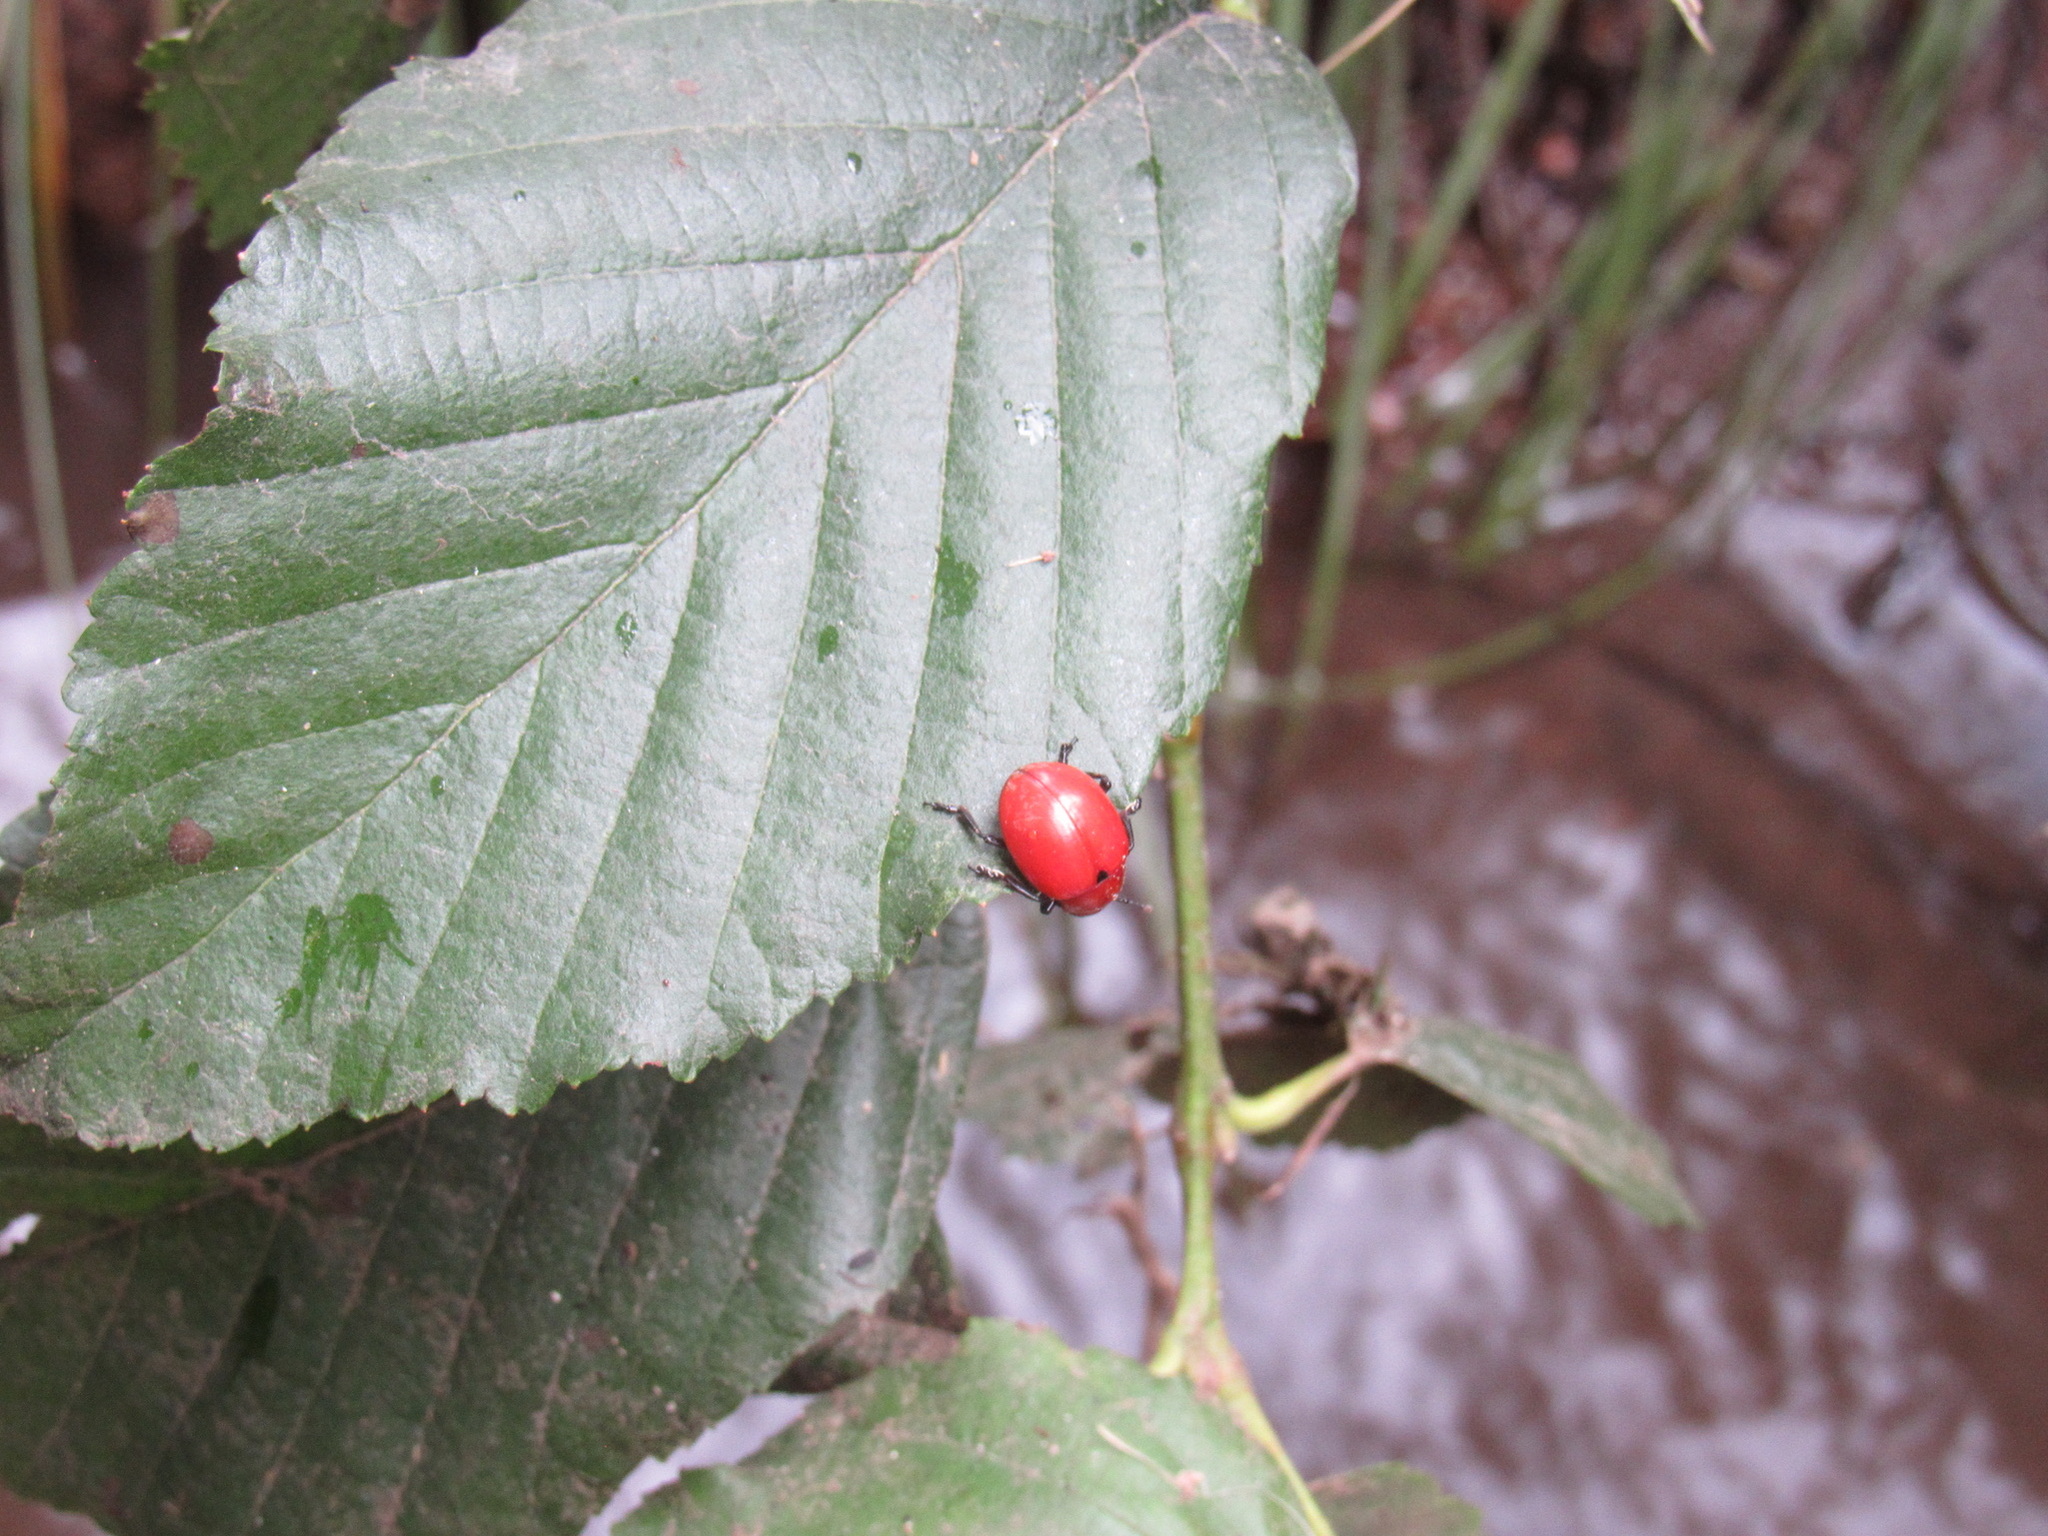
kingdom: Animalia
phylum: Arthropoda
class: Insecta
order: Coleoptera
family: Chrysomelidae
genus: Leptinotarsa
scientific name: Leptinotarsa rubiginosa
